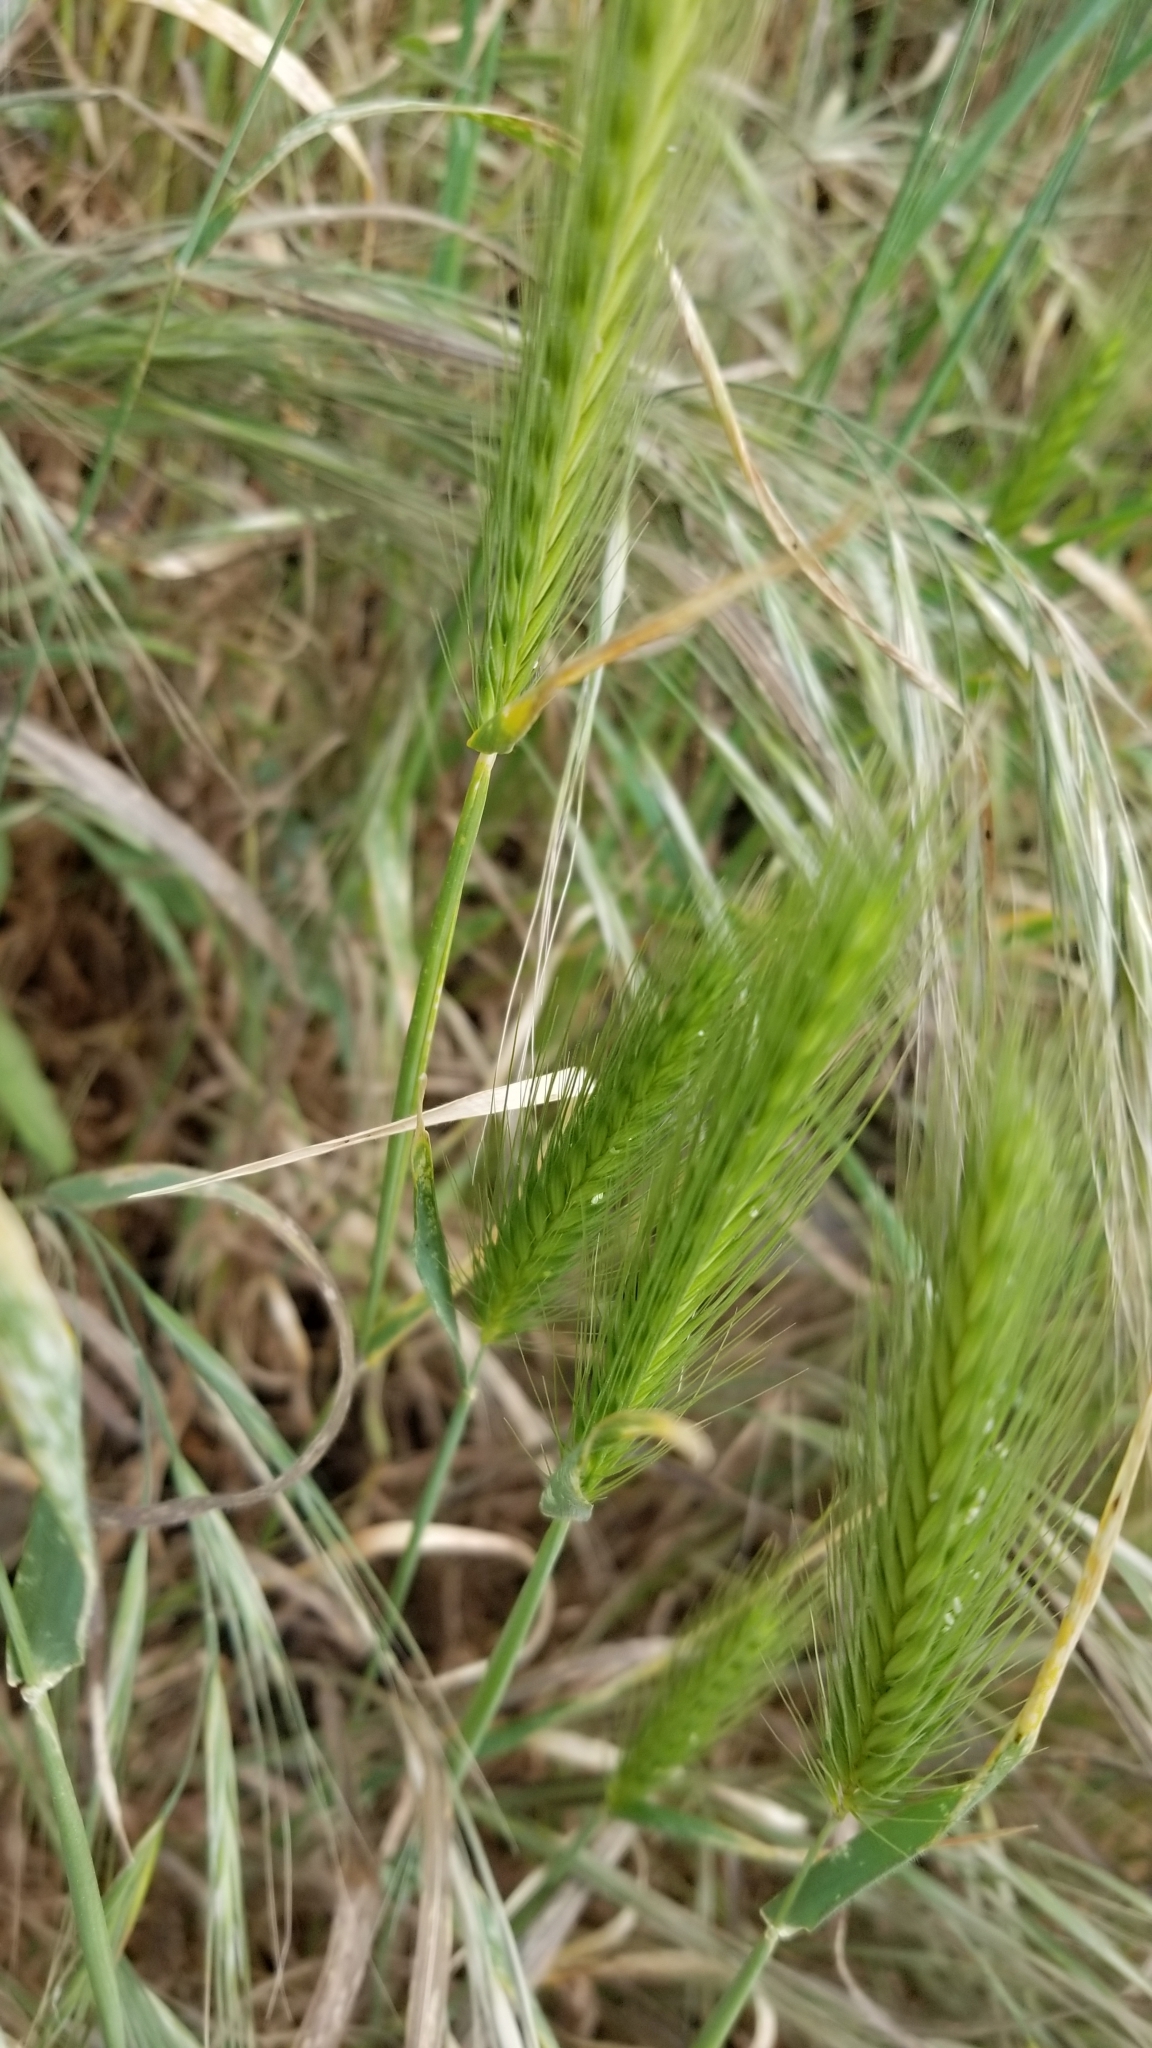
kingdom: Plantae
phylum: Tracheophyta
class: Liliopsida
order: Poales
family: Poaceae
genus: Hordeum
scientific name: Hordeum murinum
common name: Wall barley
